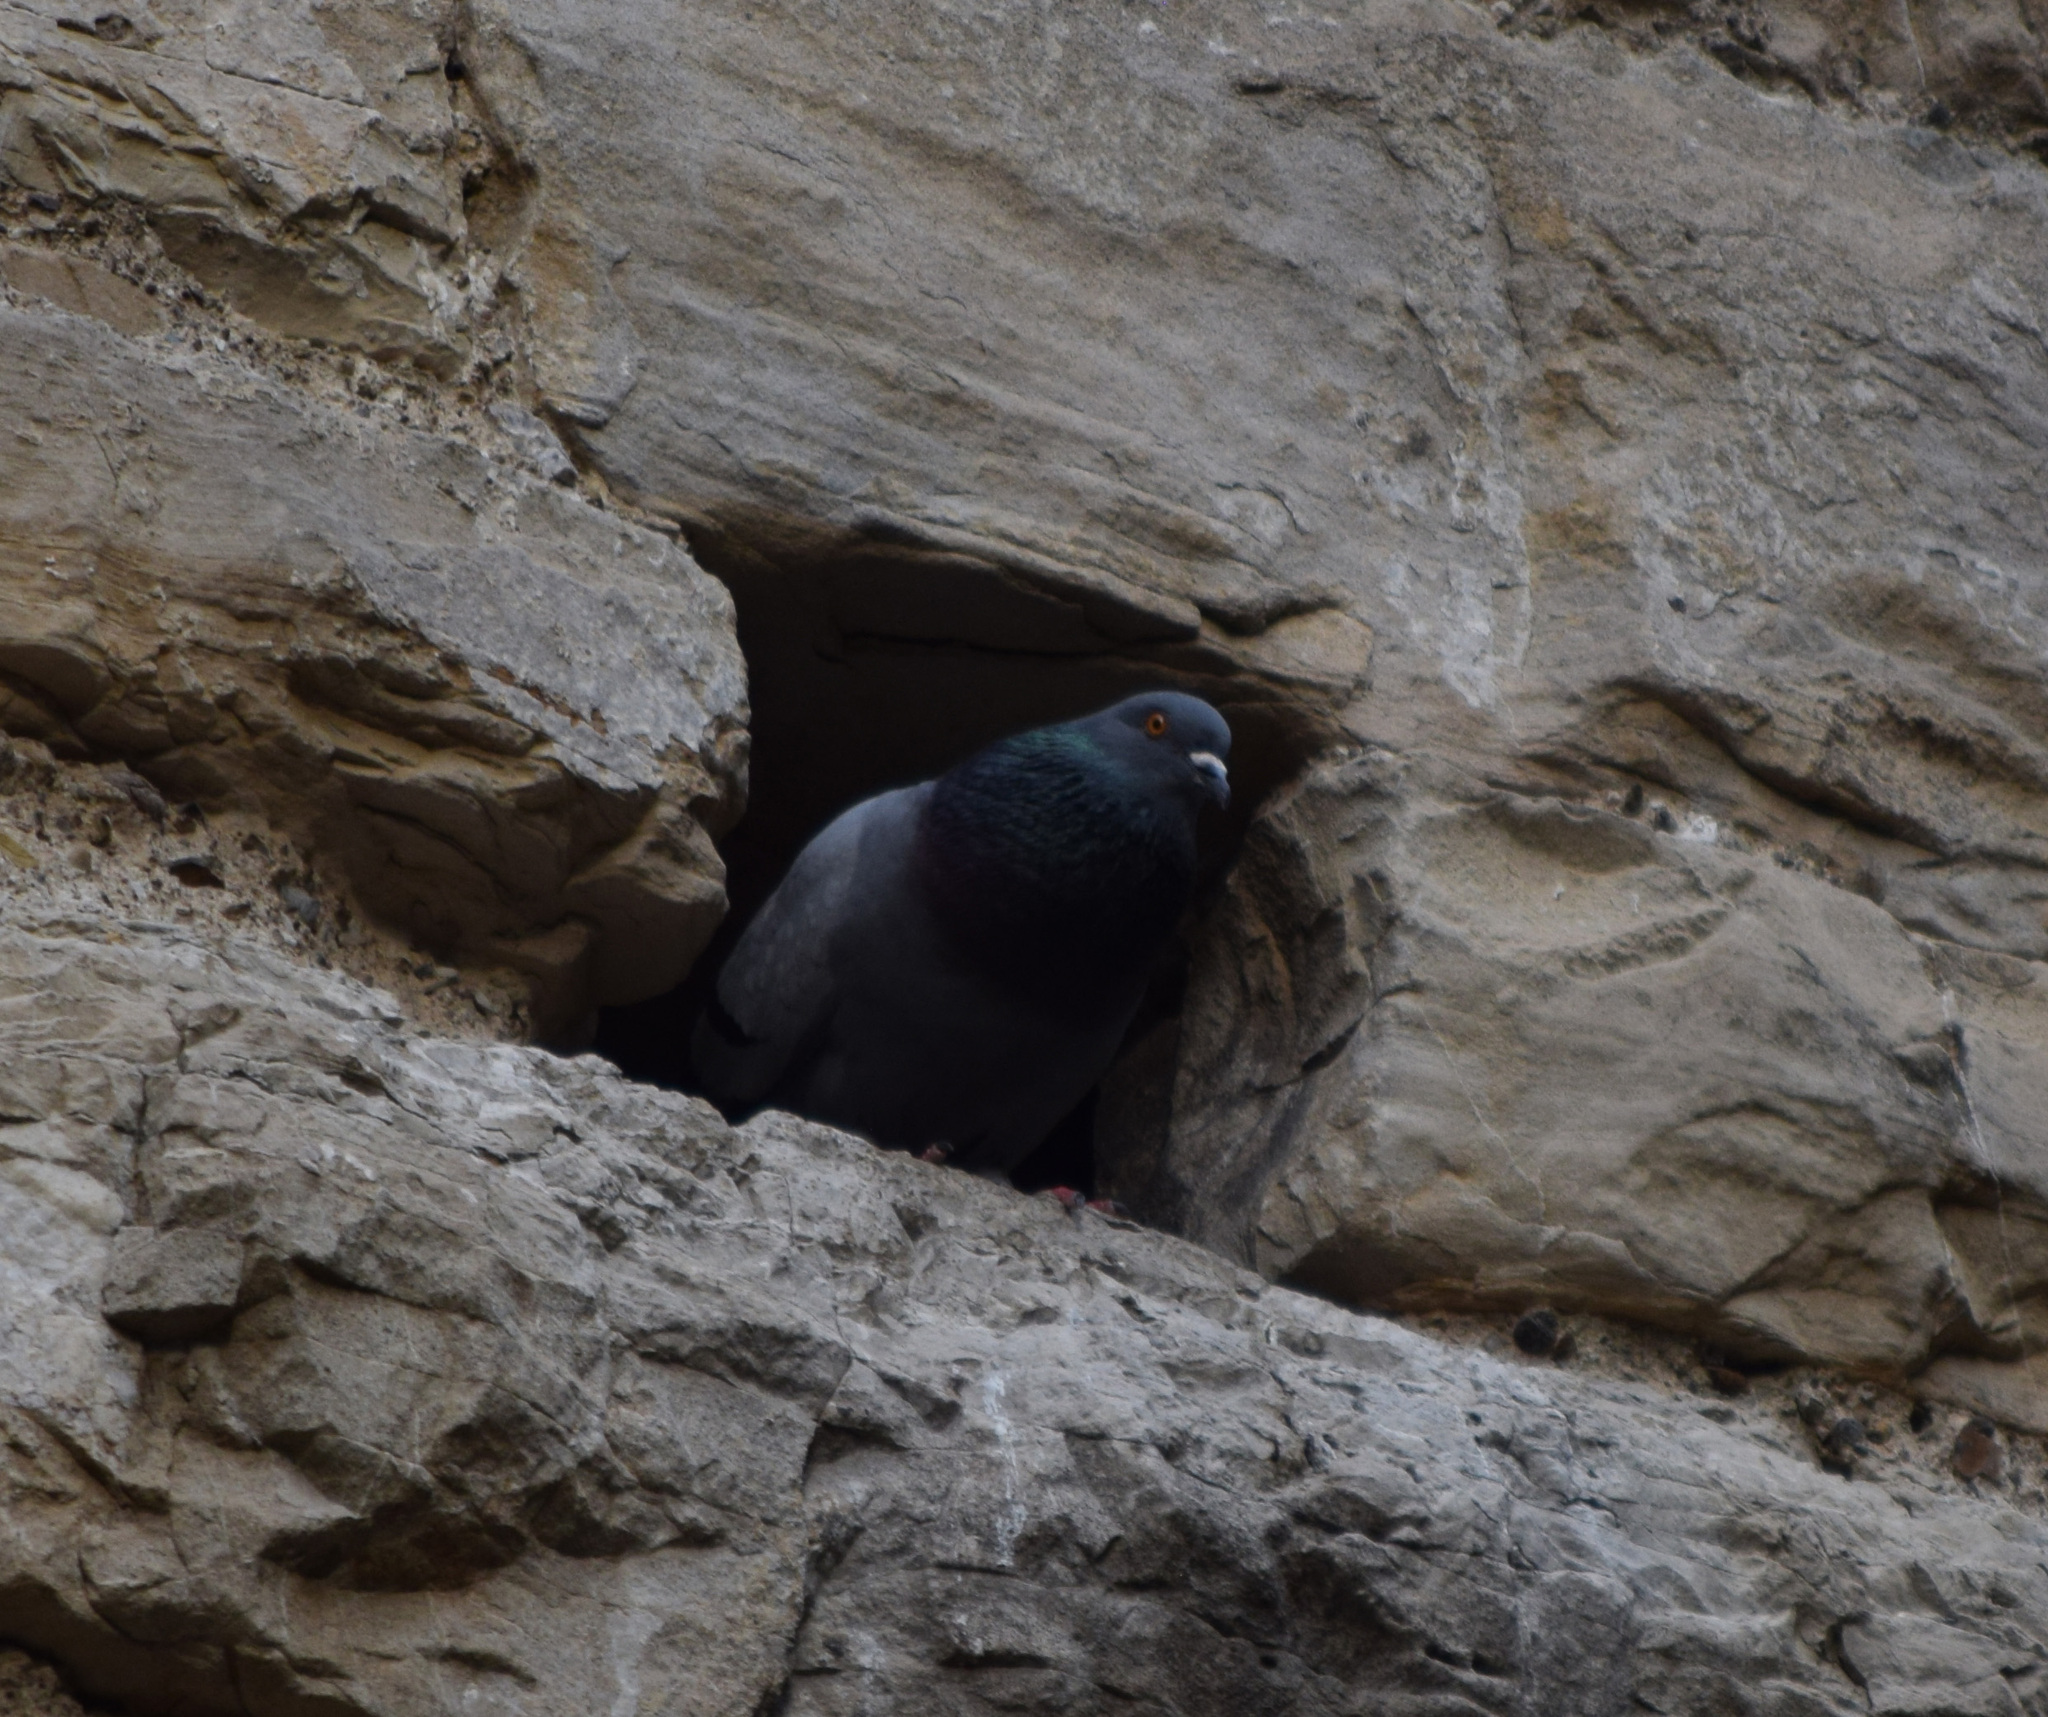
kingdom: Animalia
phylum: Chordata
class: Aves
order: Columbiformes
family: Columbidae
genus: Columba
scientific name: Columba livia
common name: Rock pigeon
